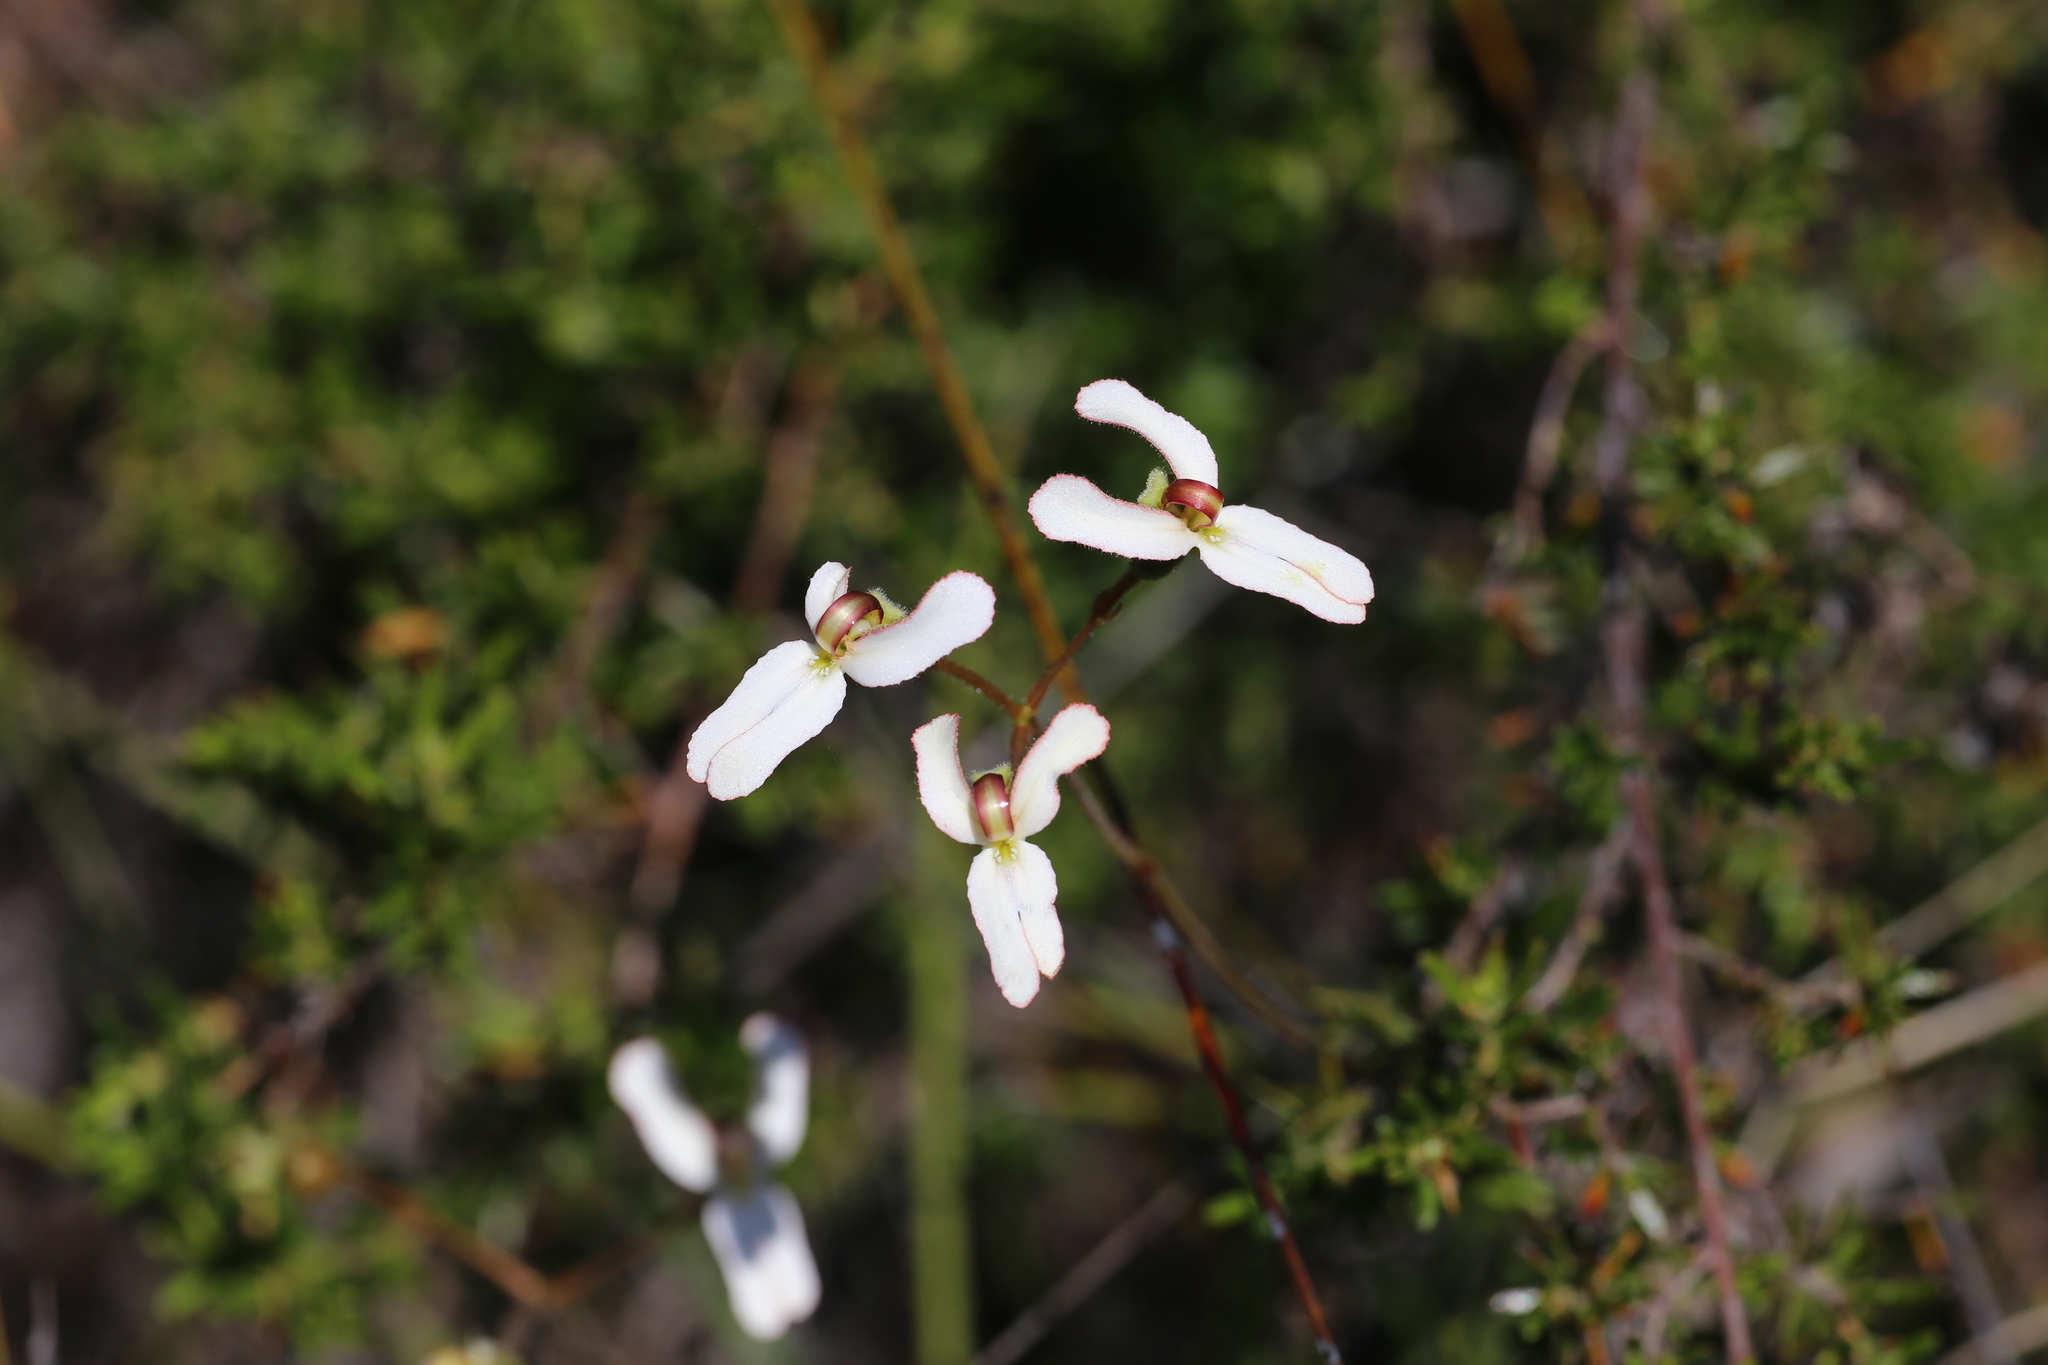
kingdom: Plantae
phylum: Tracheophyta
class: Magnoliopsida
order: Asterales
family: Stylidiaceae
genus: Stylidium
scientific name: Stylidium schoenoides
